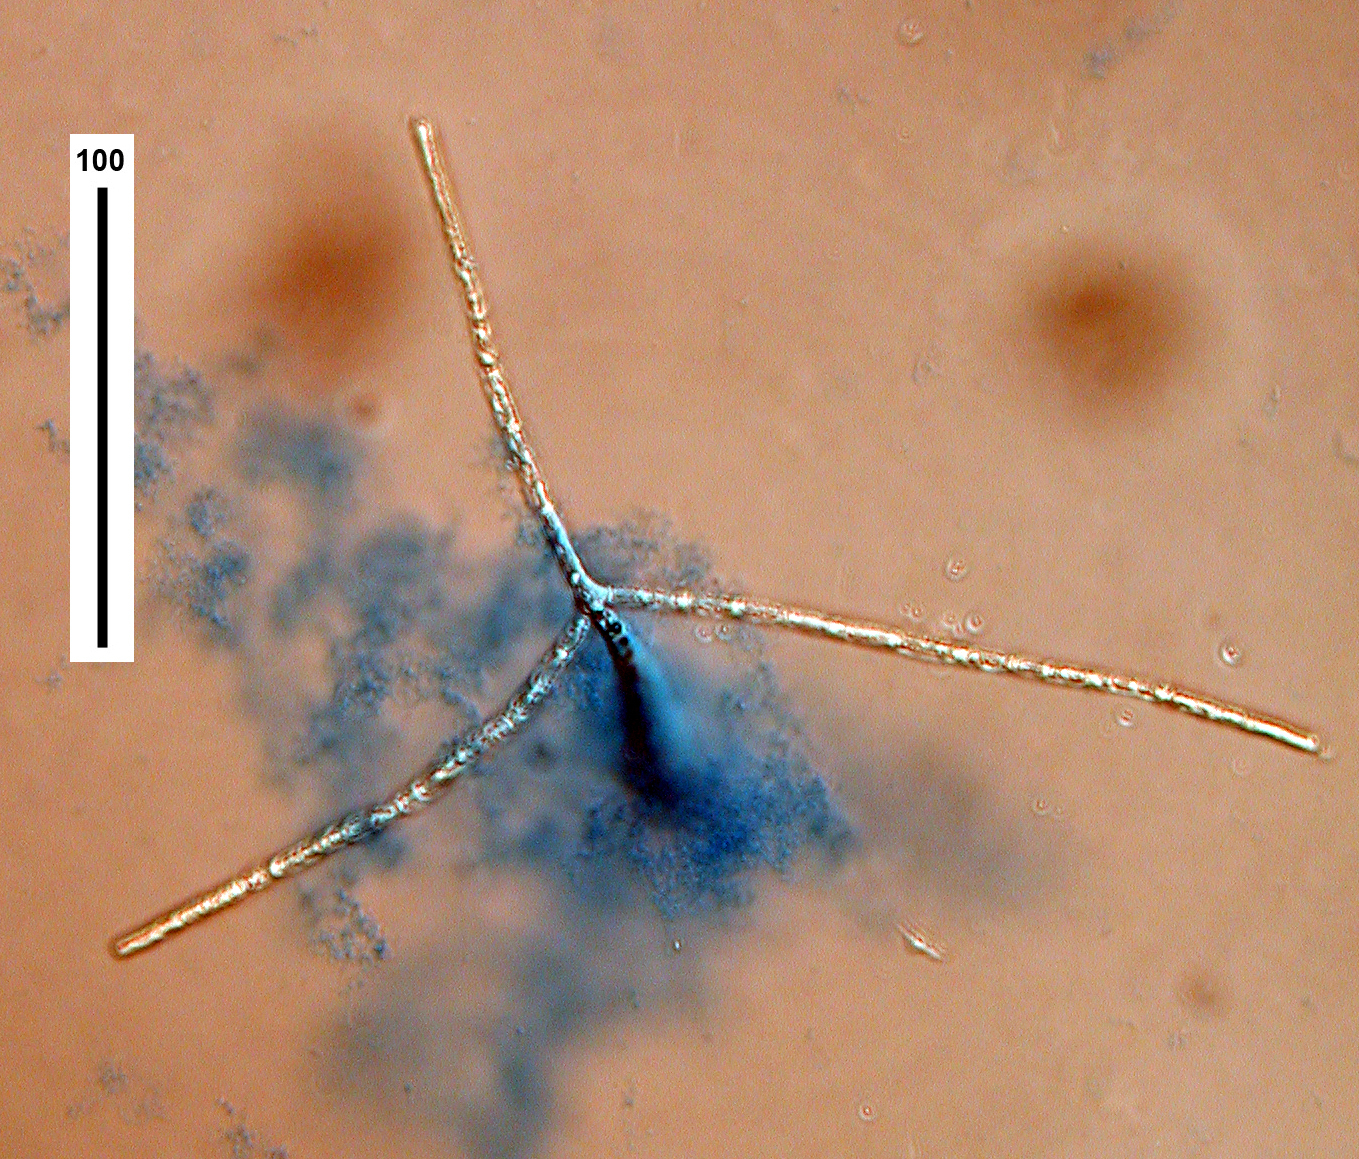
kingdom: Fungi
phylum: Ascomycota
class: Leotiomycetes
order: Helotiales
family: Discinellaceae
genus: Lemonniera
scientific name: Lemonniera aquatica
